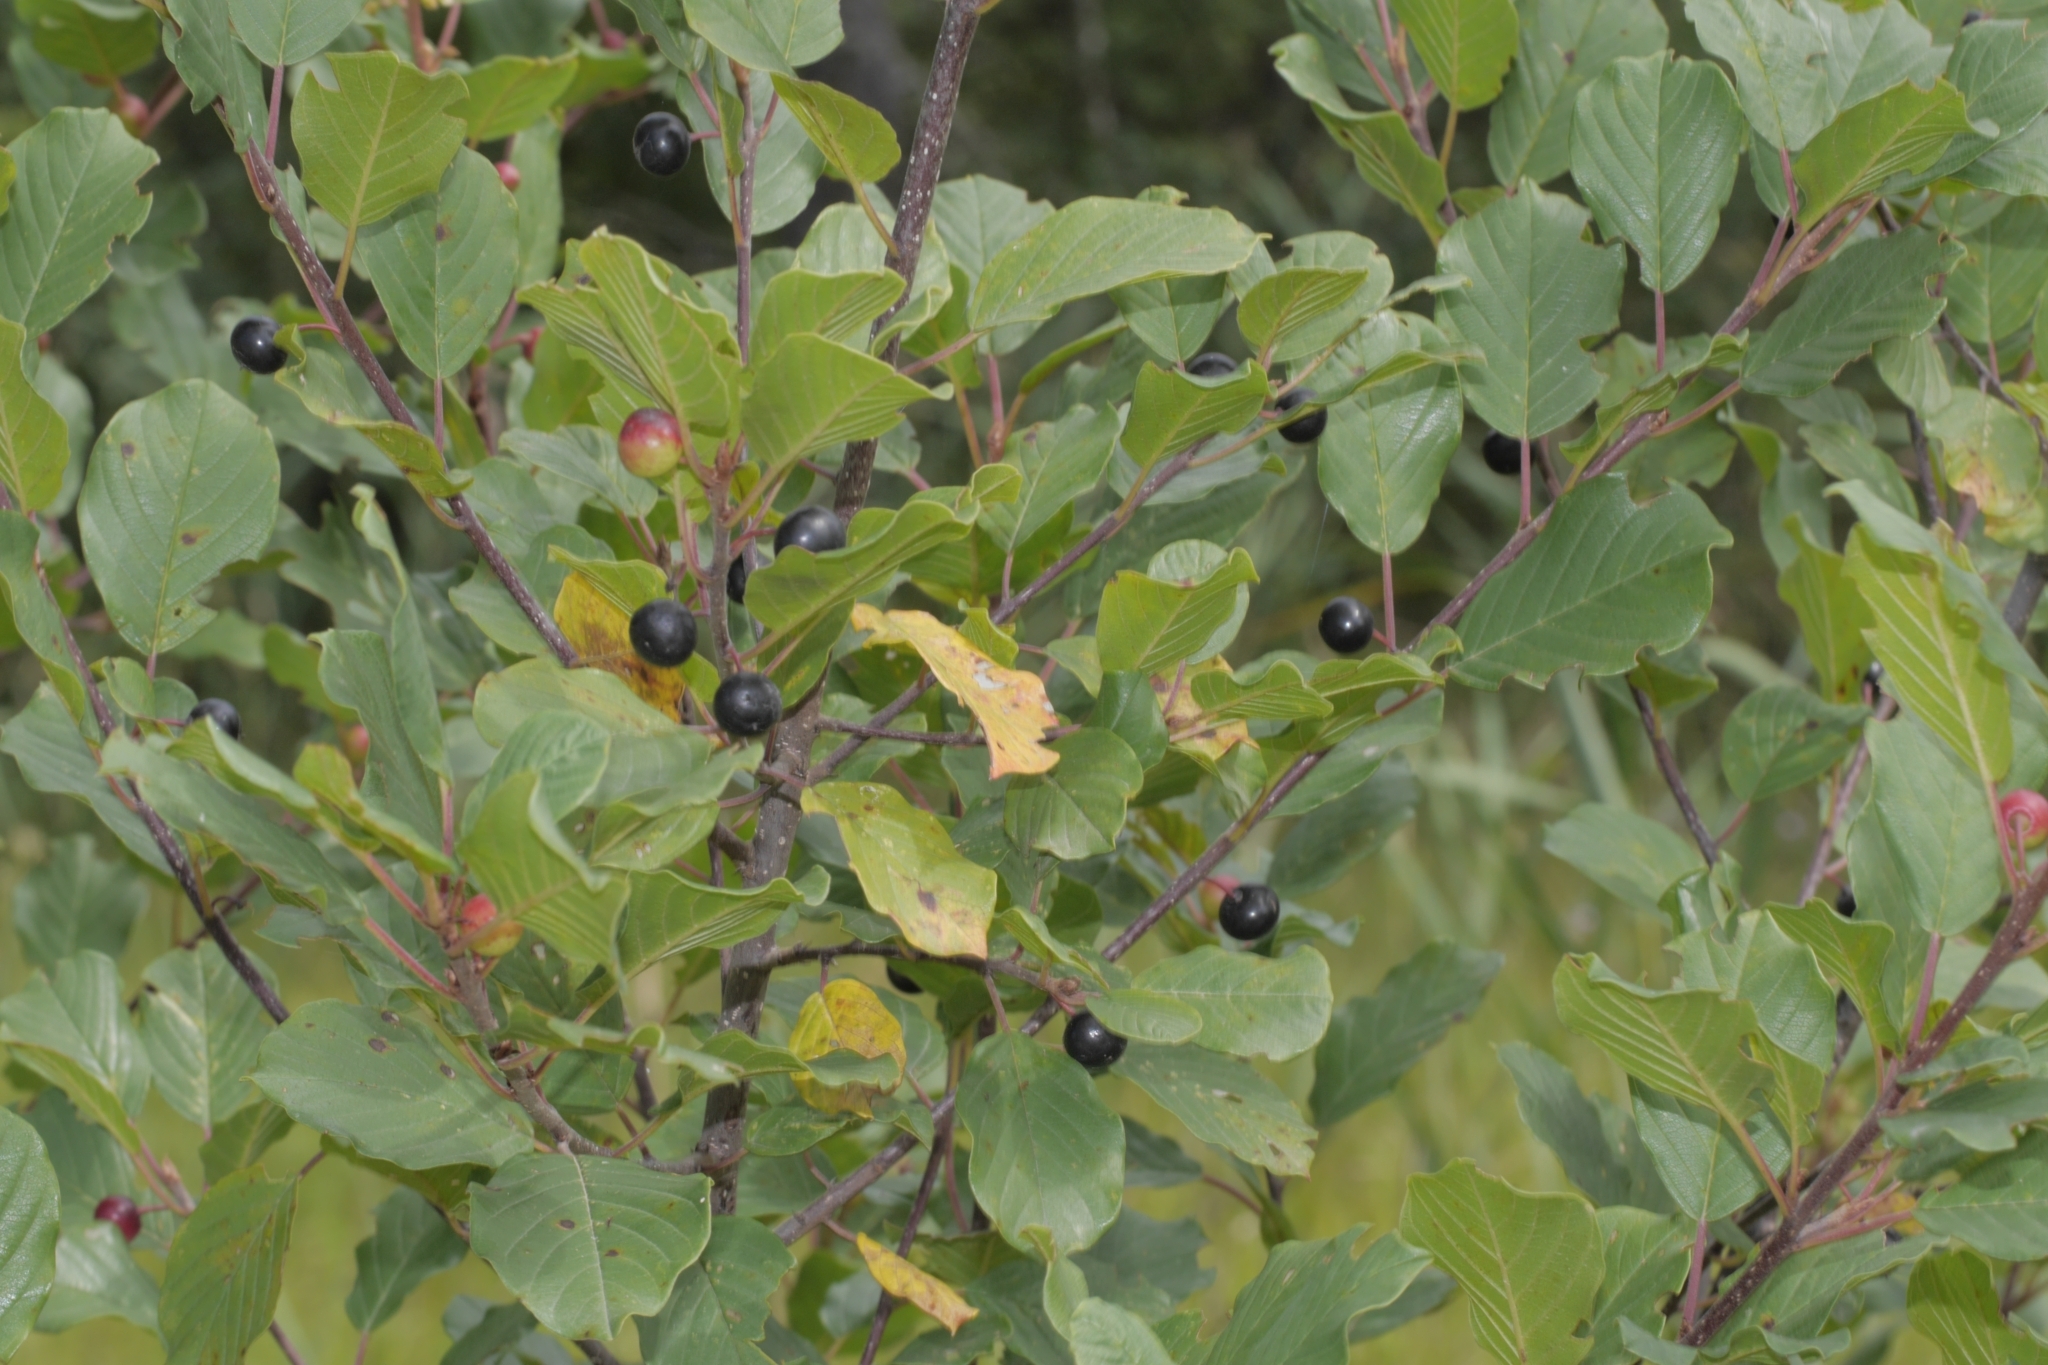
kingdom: Plantae
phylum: Tracheophyta
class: Magnoliopsida
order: Rosales
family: Rhamnaceae
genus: Frangula
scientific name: Frangula alnus
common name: Alder buckthorn
